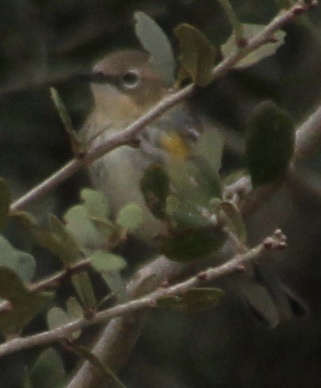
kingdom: Animalia
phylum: Chordata
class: Aves
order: Passeriformes
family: Parulidae
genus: Setophaga
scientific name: Setophaga coronata
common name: Myrtle warbler
